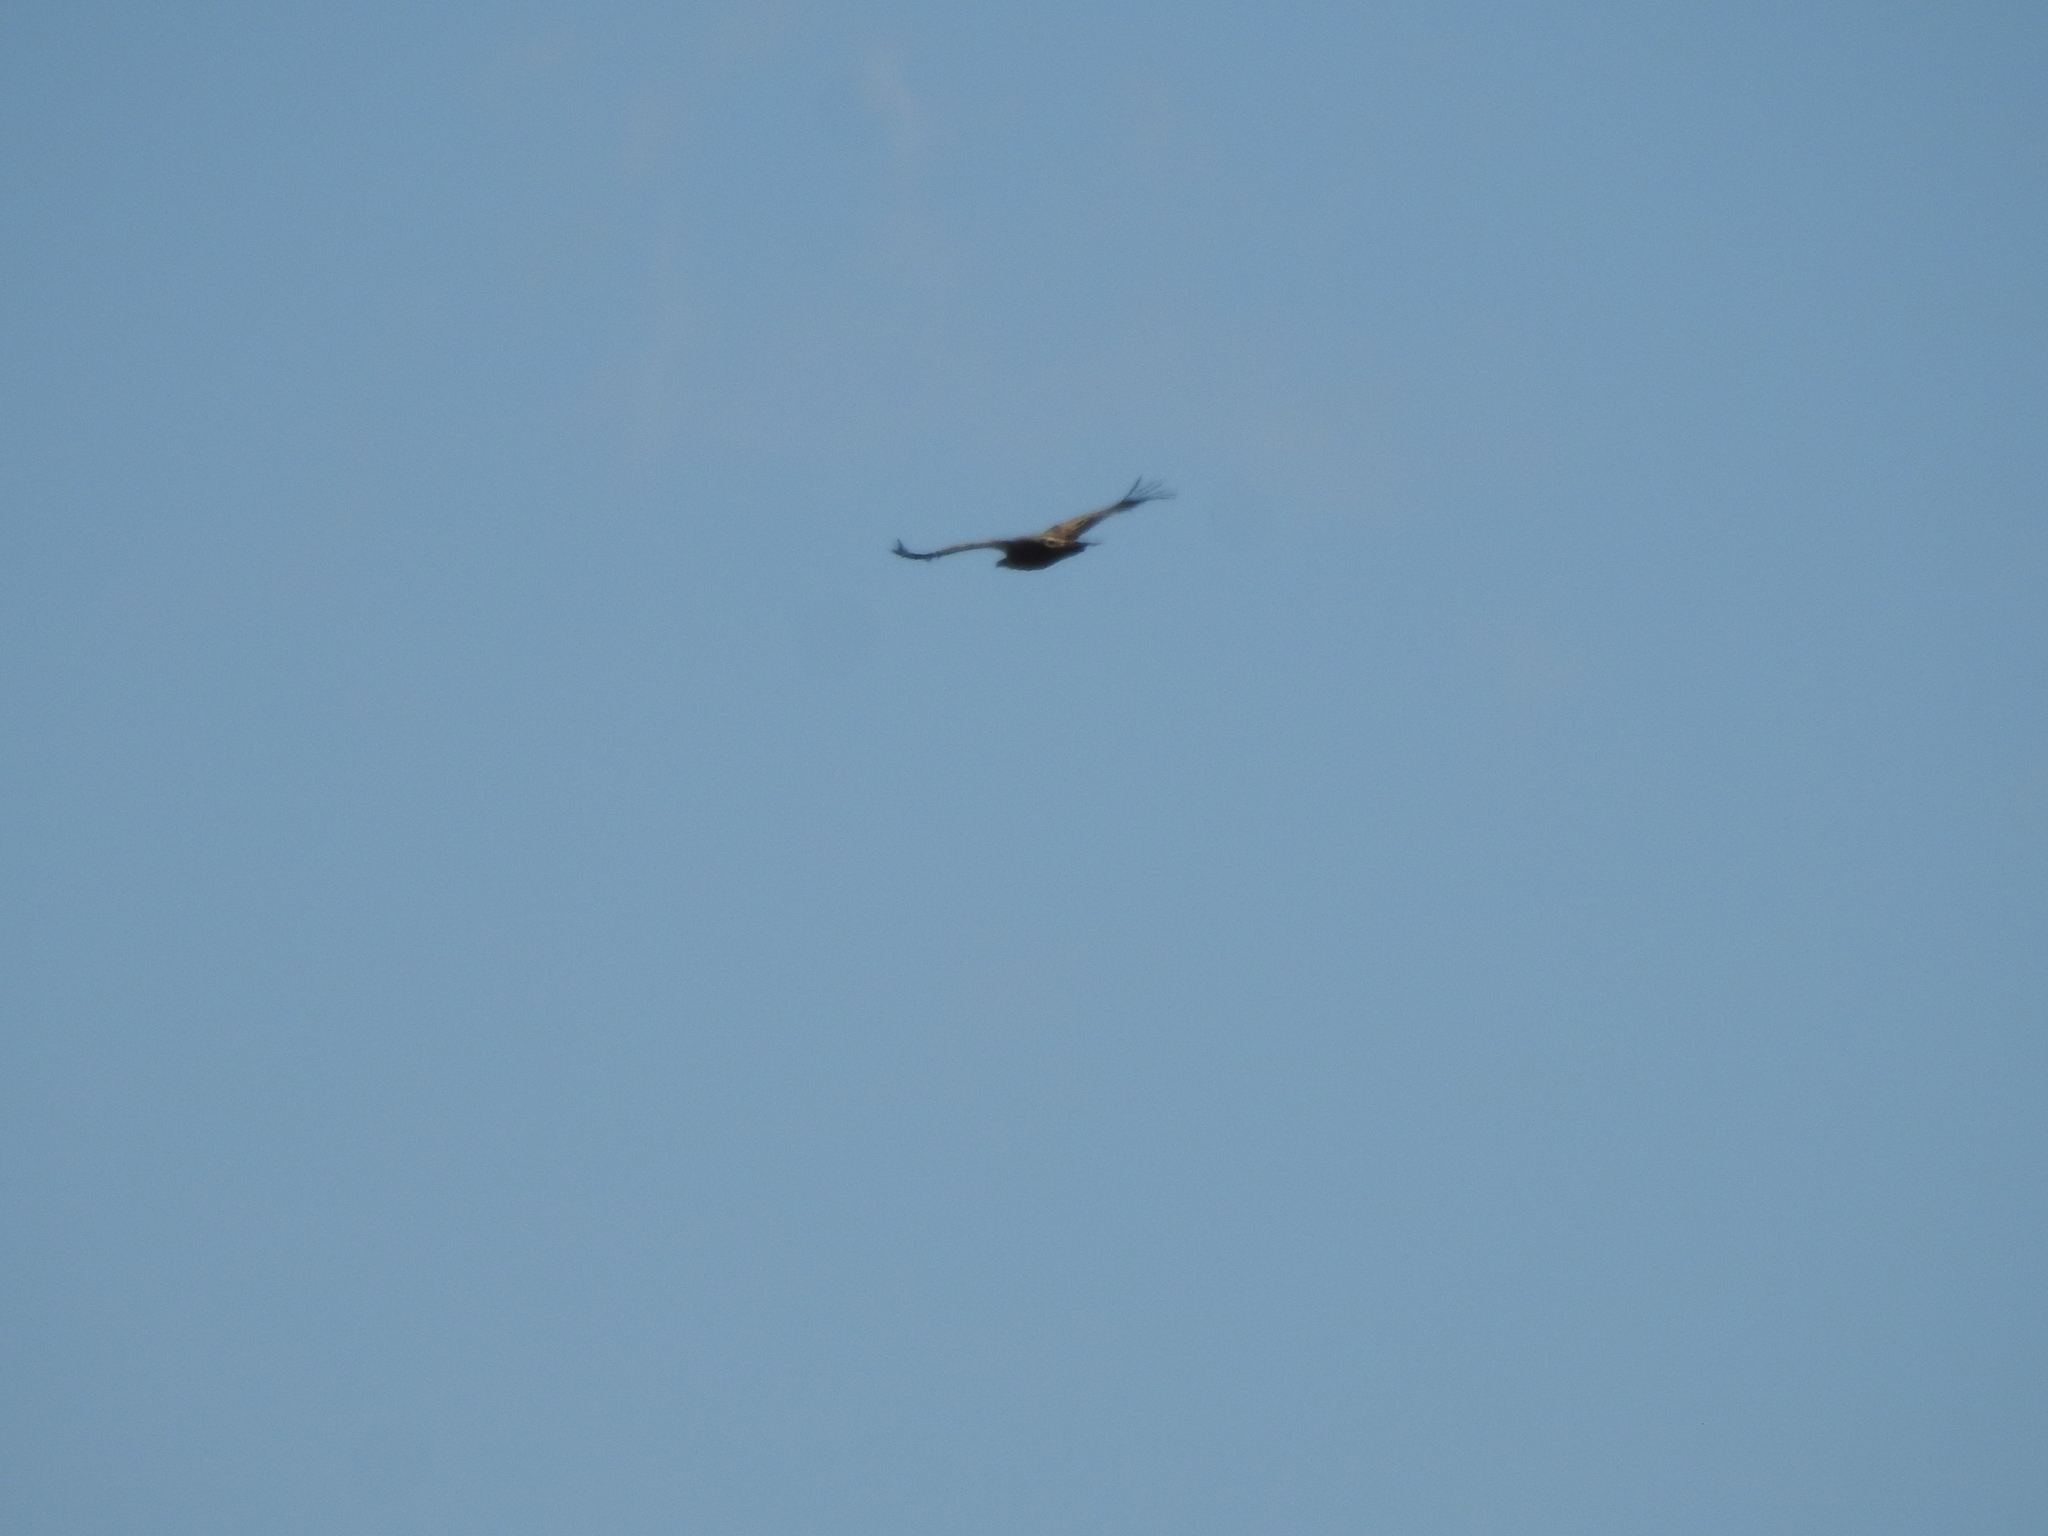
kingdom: Animalia
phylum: Chordata
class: Aves
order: Accipitriformes
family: Accipitridae
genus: Gyps
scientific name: Gyps fulvus
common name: Griffon vulture
